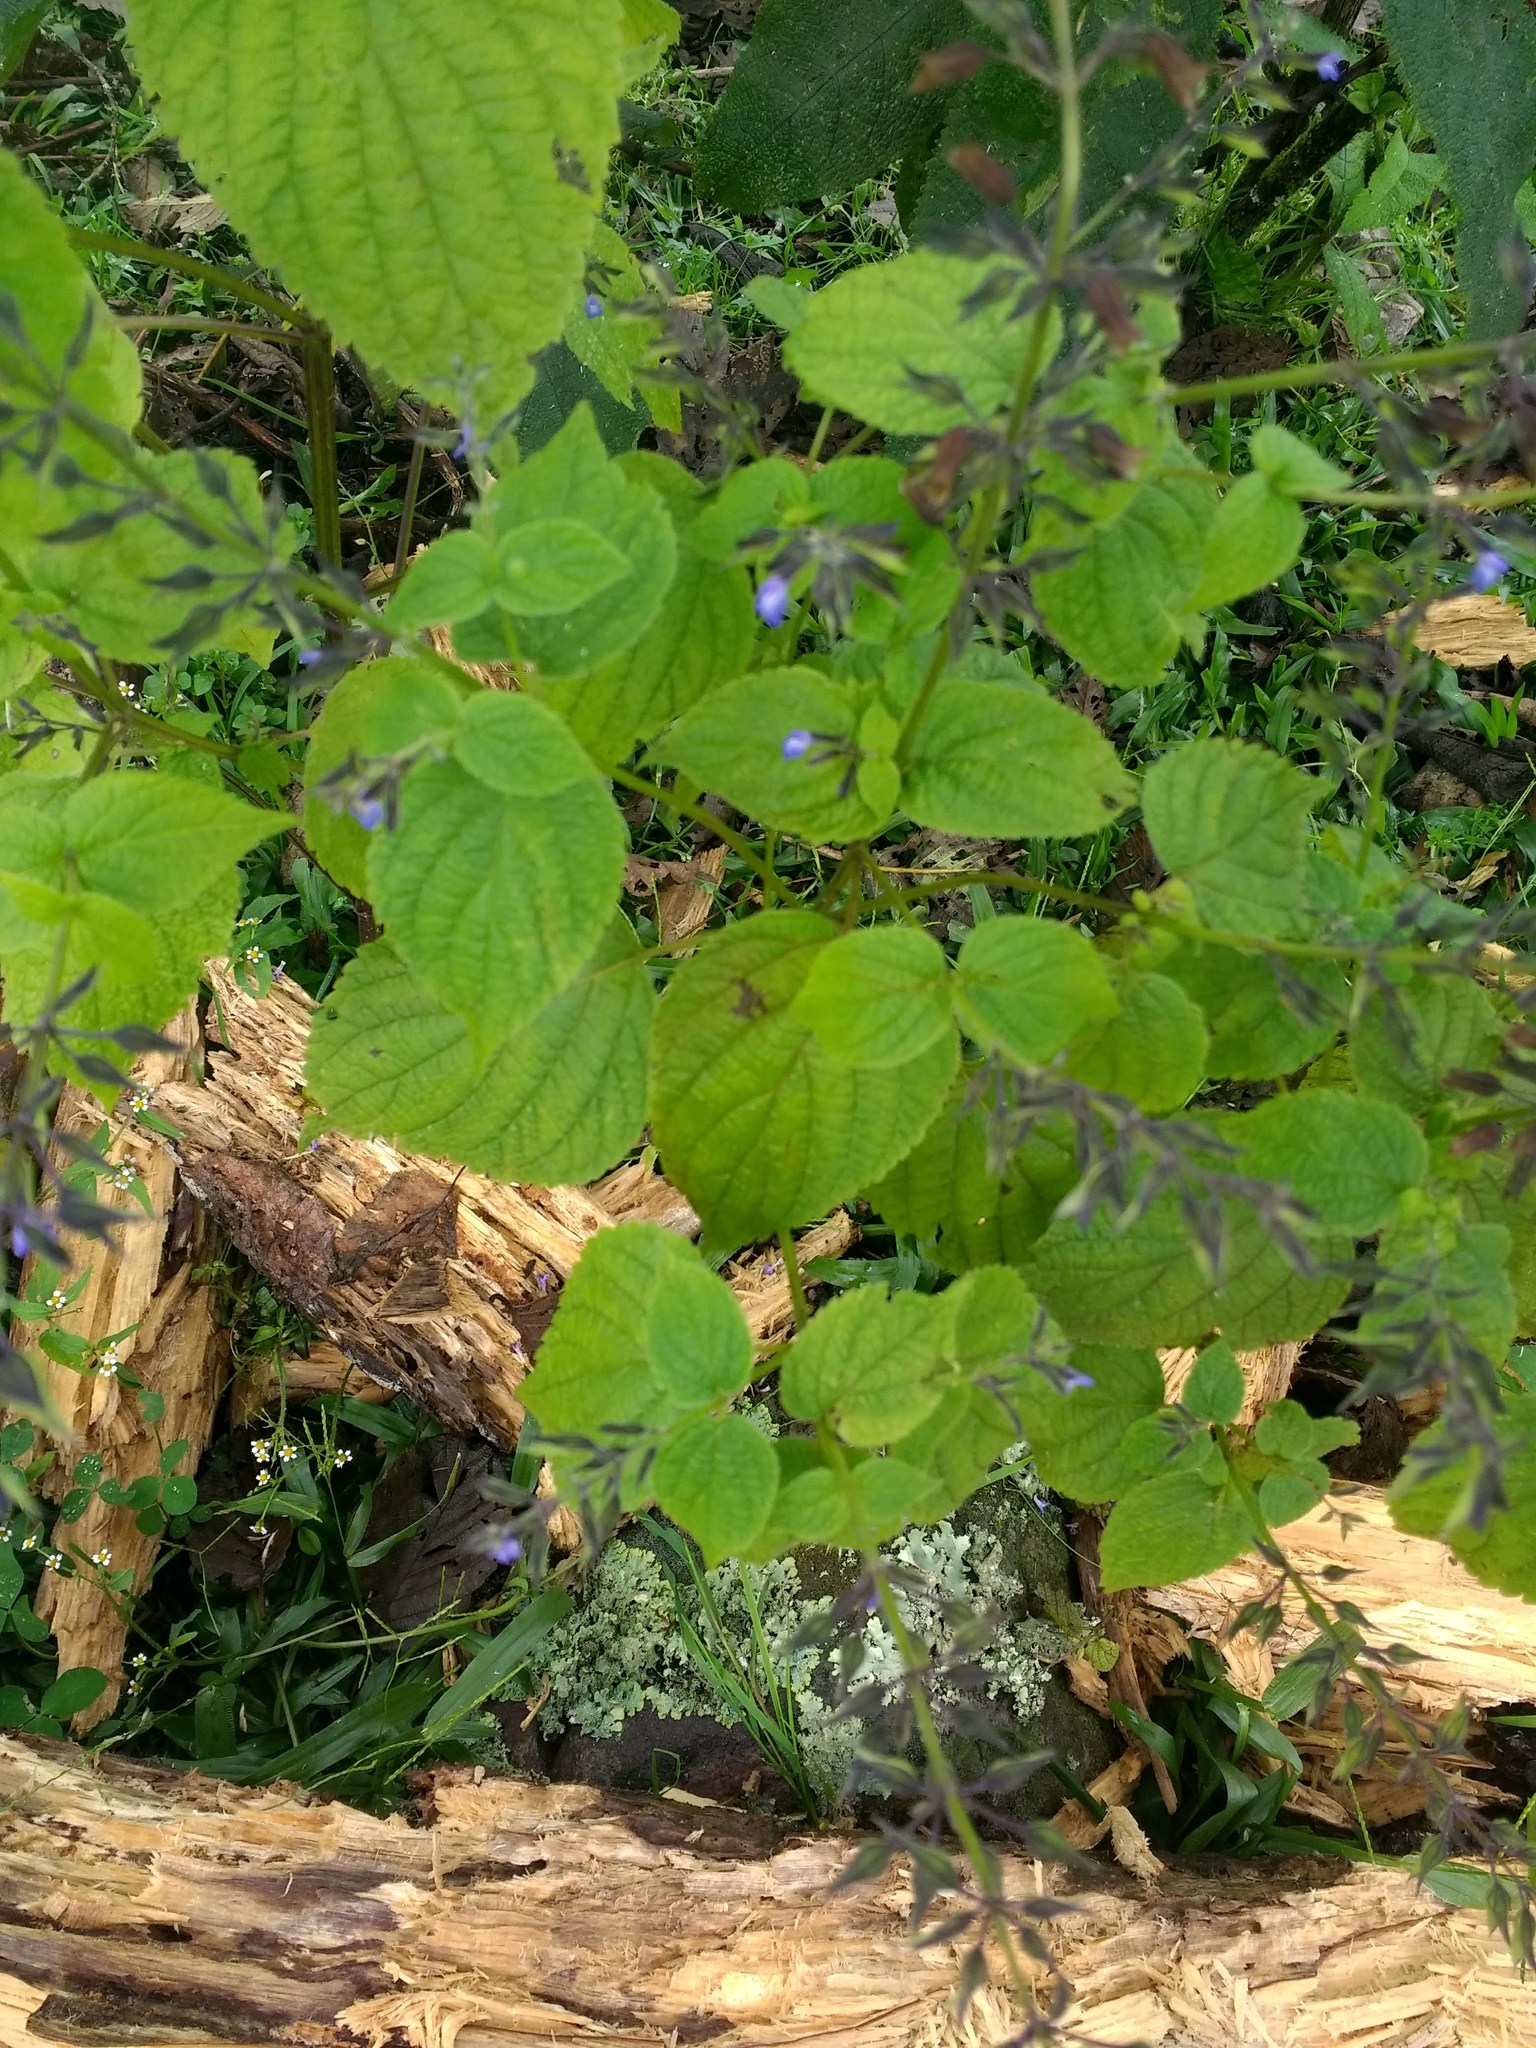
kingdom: Plantae
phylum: Tracheophyta
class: Magnoliopsida
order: Lamiales
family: Lamiaceae
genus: Salvia
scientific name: Salvia personata
